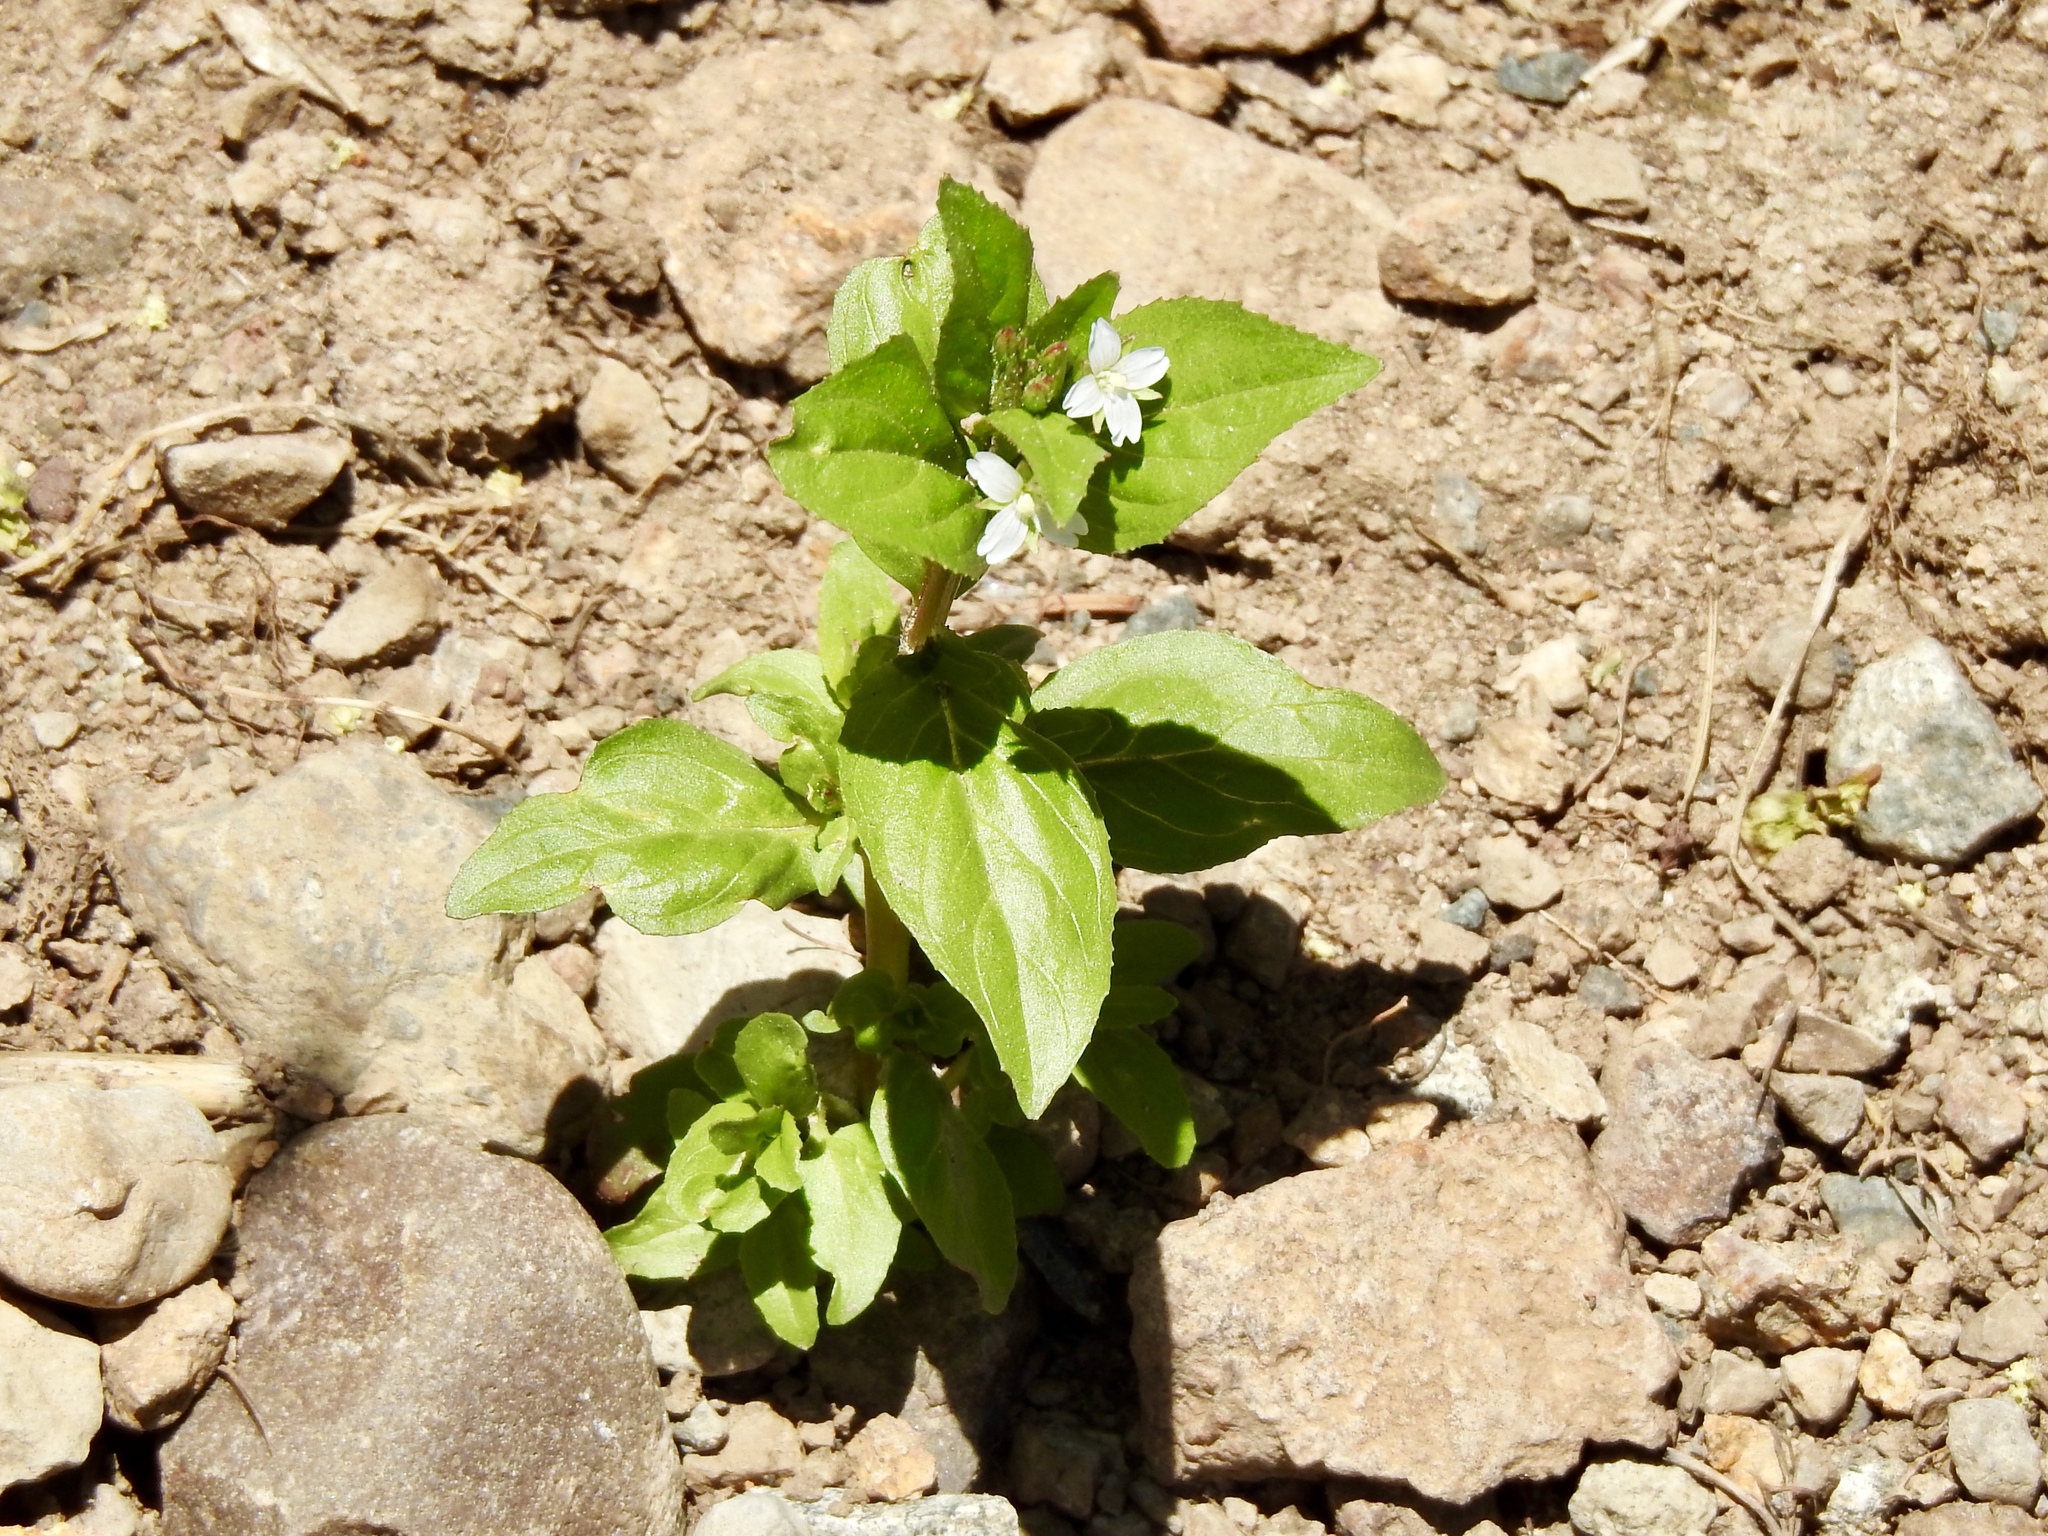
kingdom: Plantae
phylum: Tracheophyta
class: Magnoliopsida
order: Lamiales
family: Plantaginaceae
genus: Veronica
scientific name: Veronica americana
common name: American brooklime
